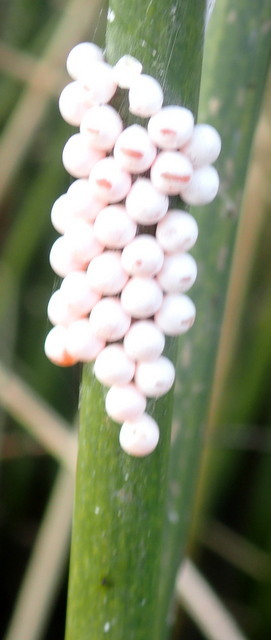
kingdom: Animalia
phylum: Mollusca
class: Gastropoda
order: Architaenioglossa
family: Ampullariidae
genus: Pomacea
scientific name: Pomacea paludosa
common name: Florida applesnail
